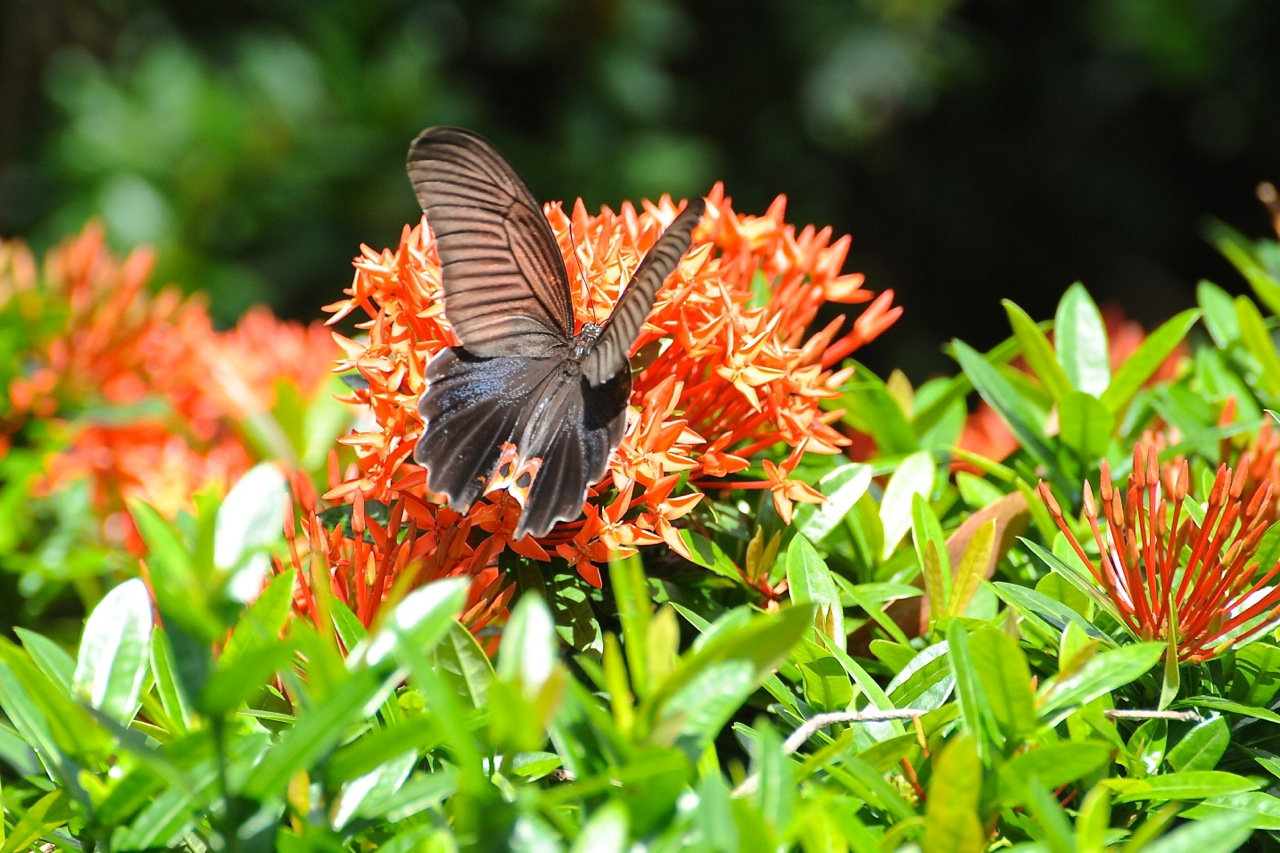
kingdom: Animalia
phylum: Arthropoda
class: Insecta
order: Lepidoptera
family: Papilionidae
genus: Papilio
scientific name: Papilio protenor
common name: Spangle
